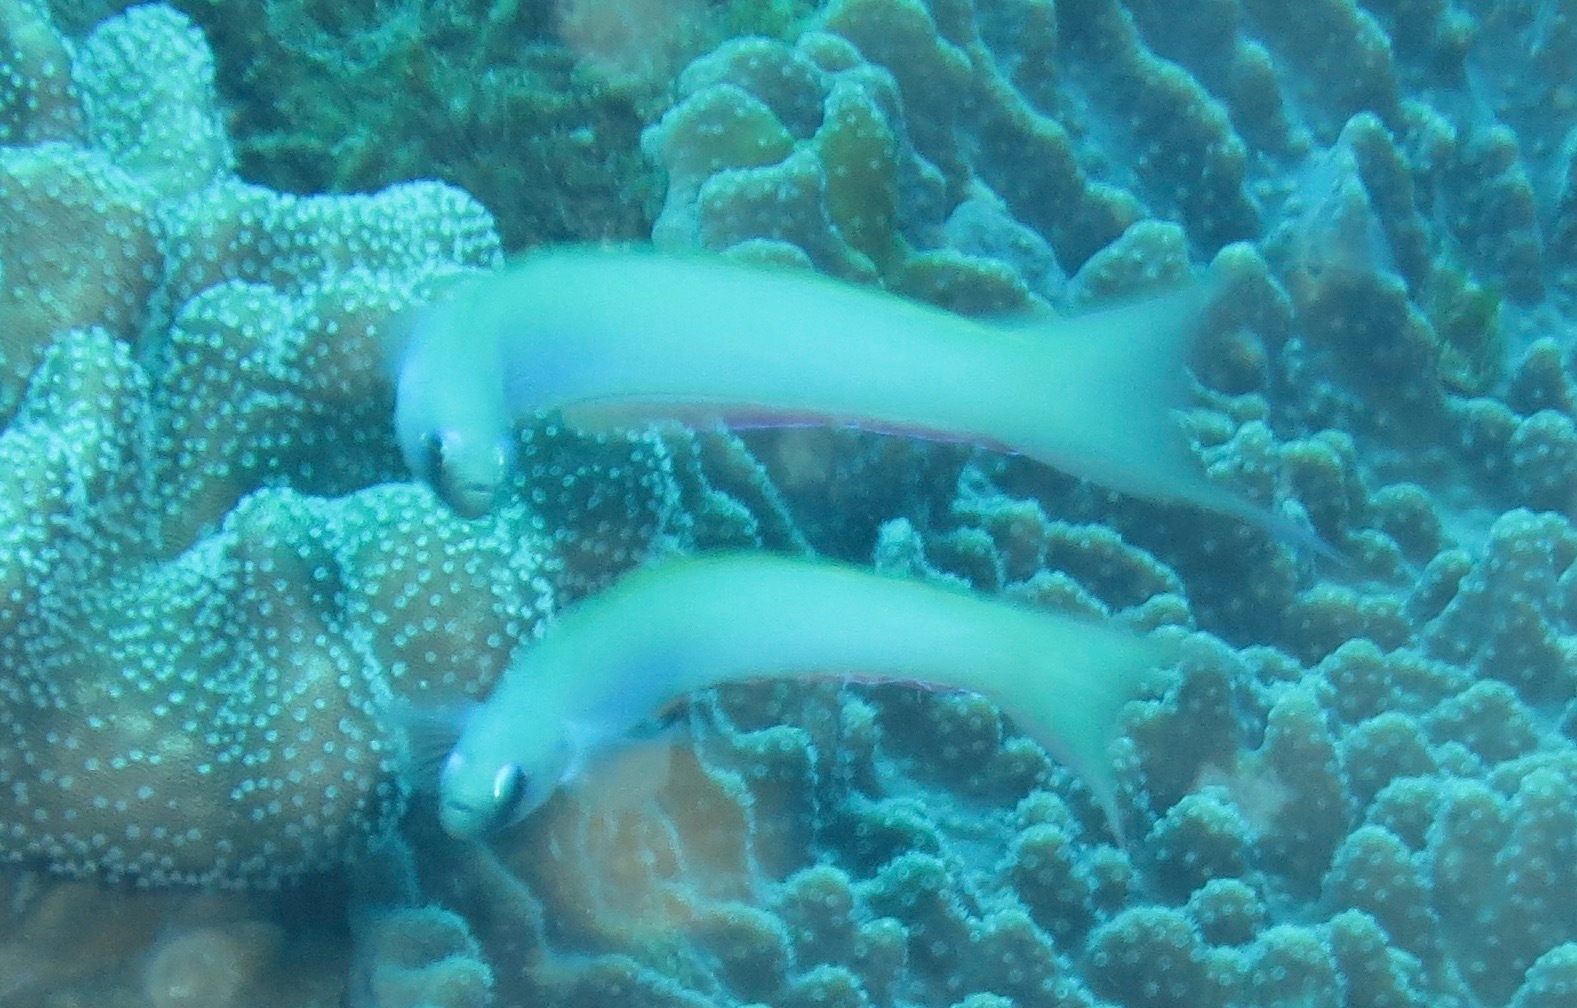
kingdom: Animalia
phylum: Chordata
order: Perciformes
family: Microdesmidae
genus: Ptereleotris
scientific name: Ptereleotris monoptera
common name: Lyre-tail dart-goby
